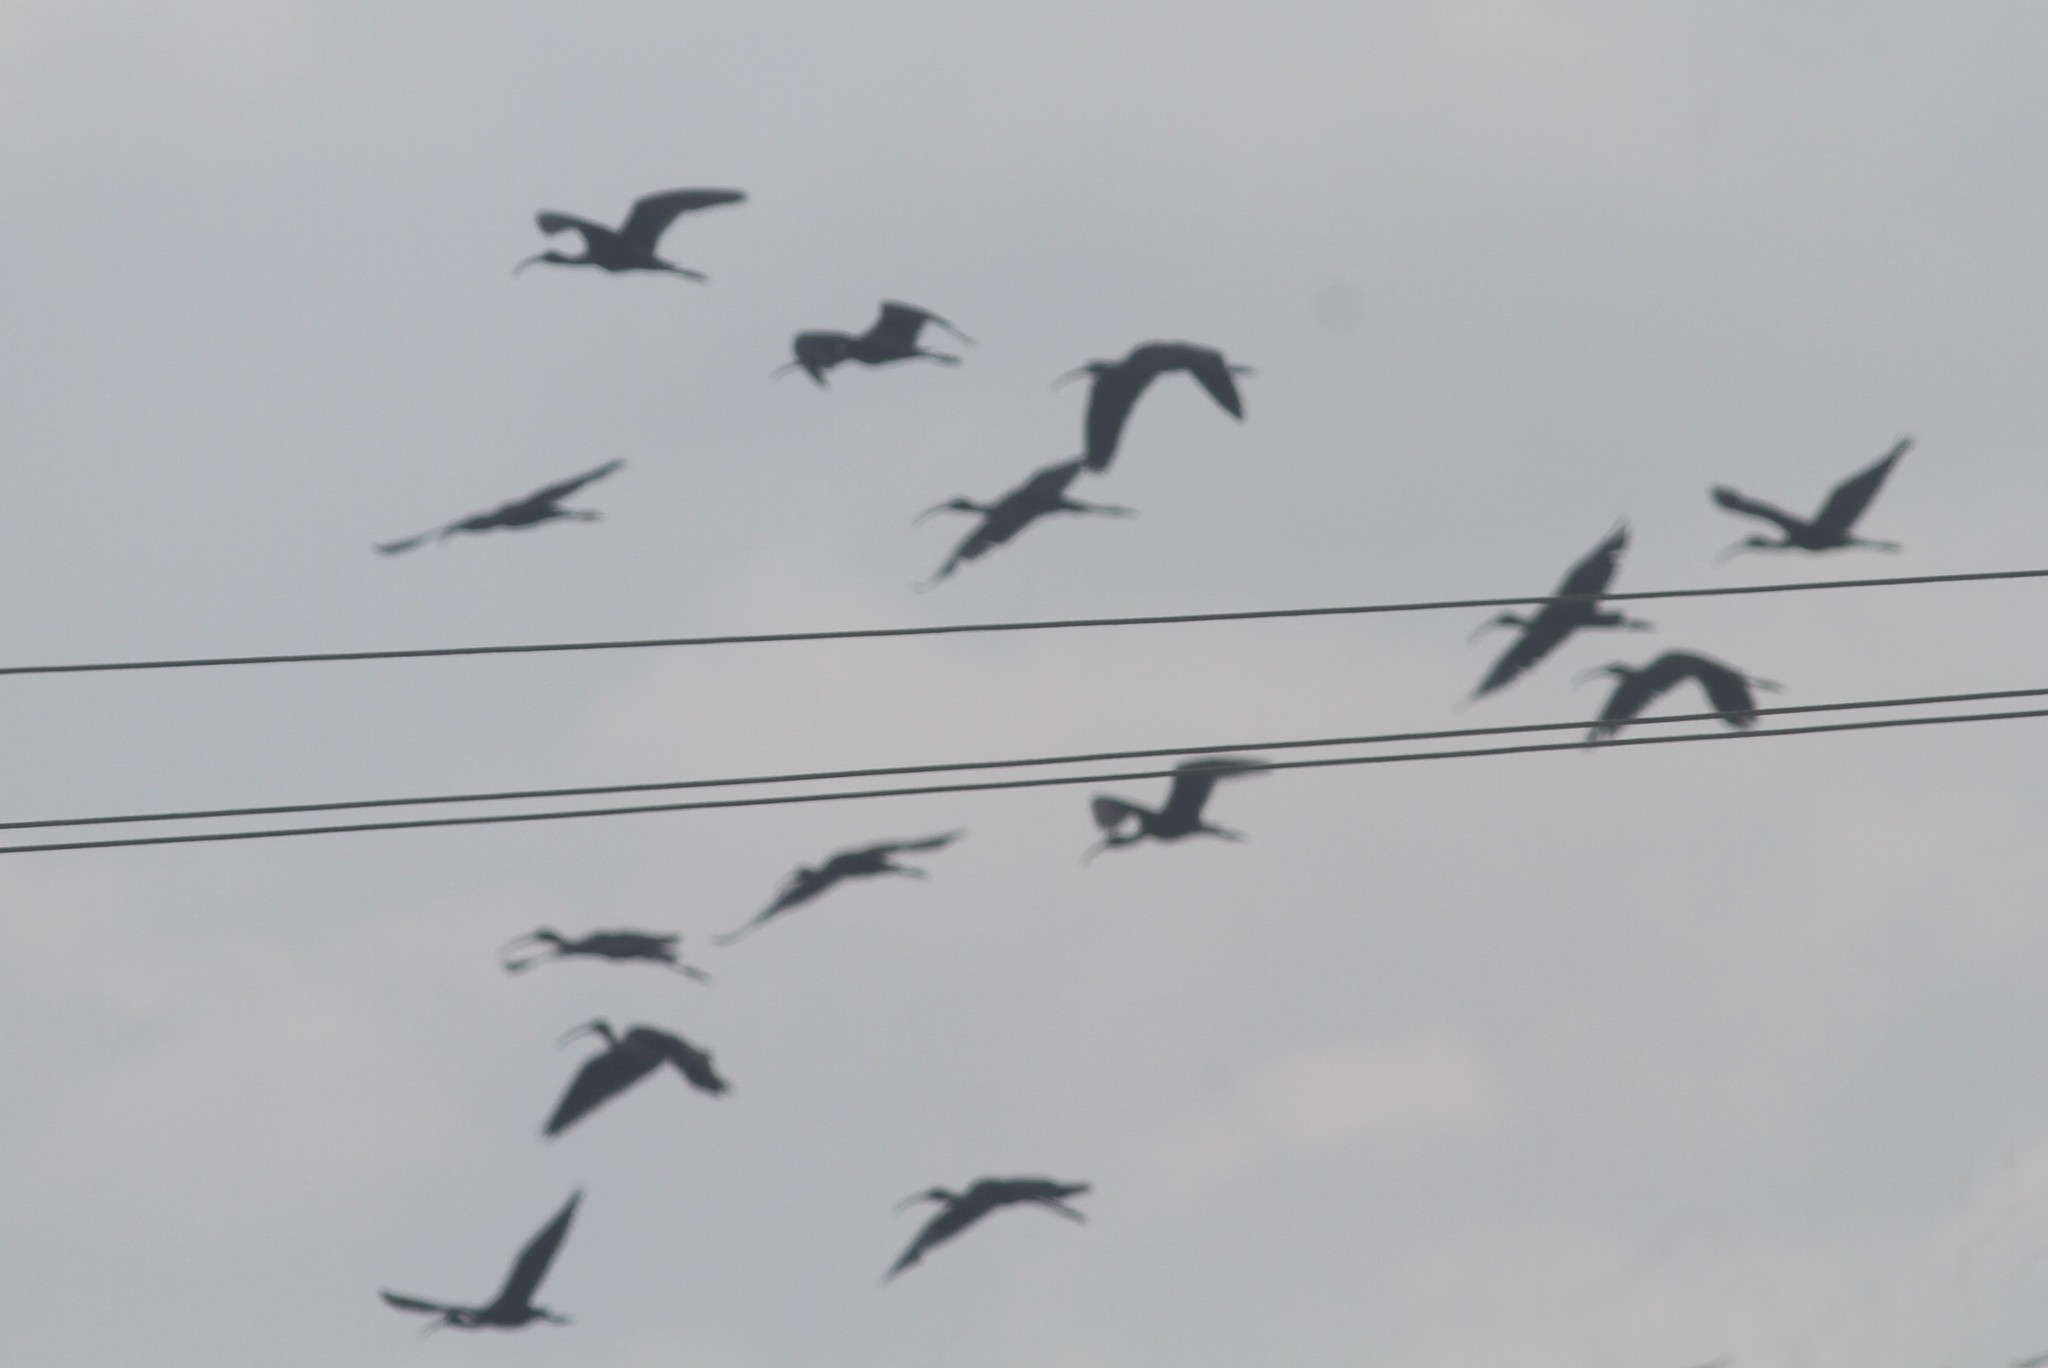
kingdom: Animalia
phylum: Chordata
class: Aves
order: Pelecaniformes
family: Threskiornithidae
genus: Plegadis
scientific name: Plegadis falcinellus
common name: Glossy ibis
